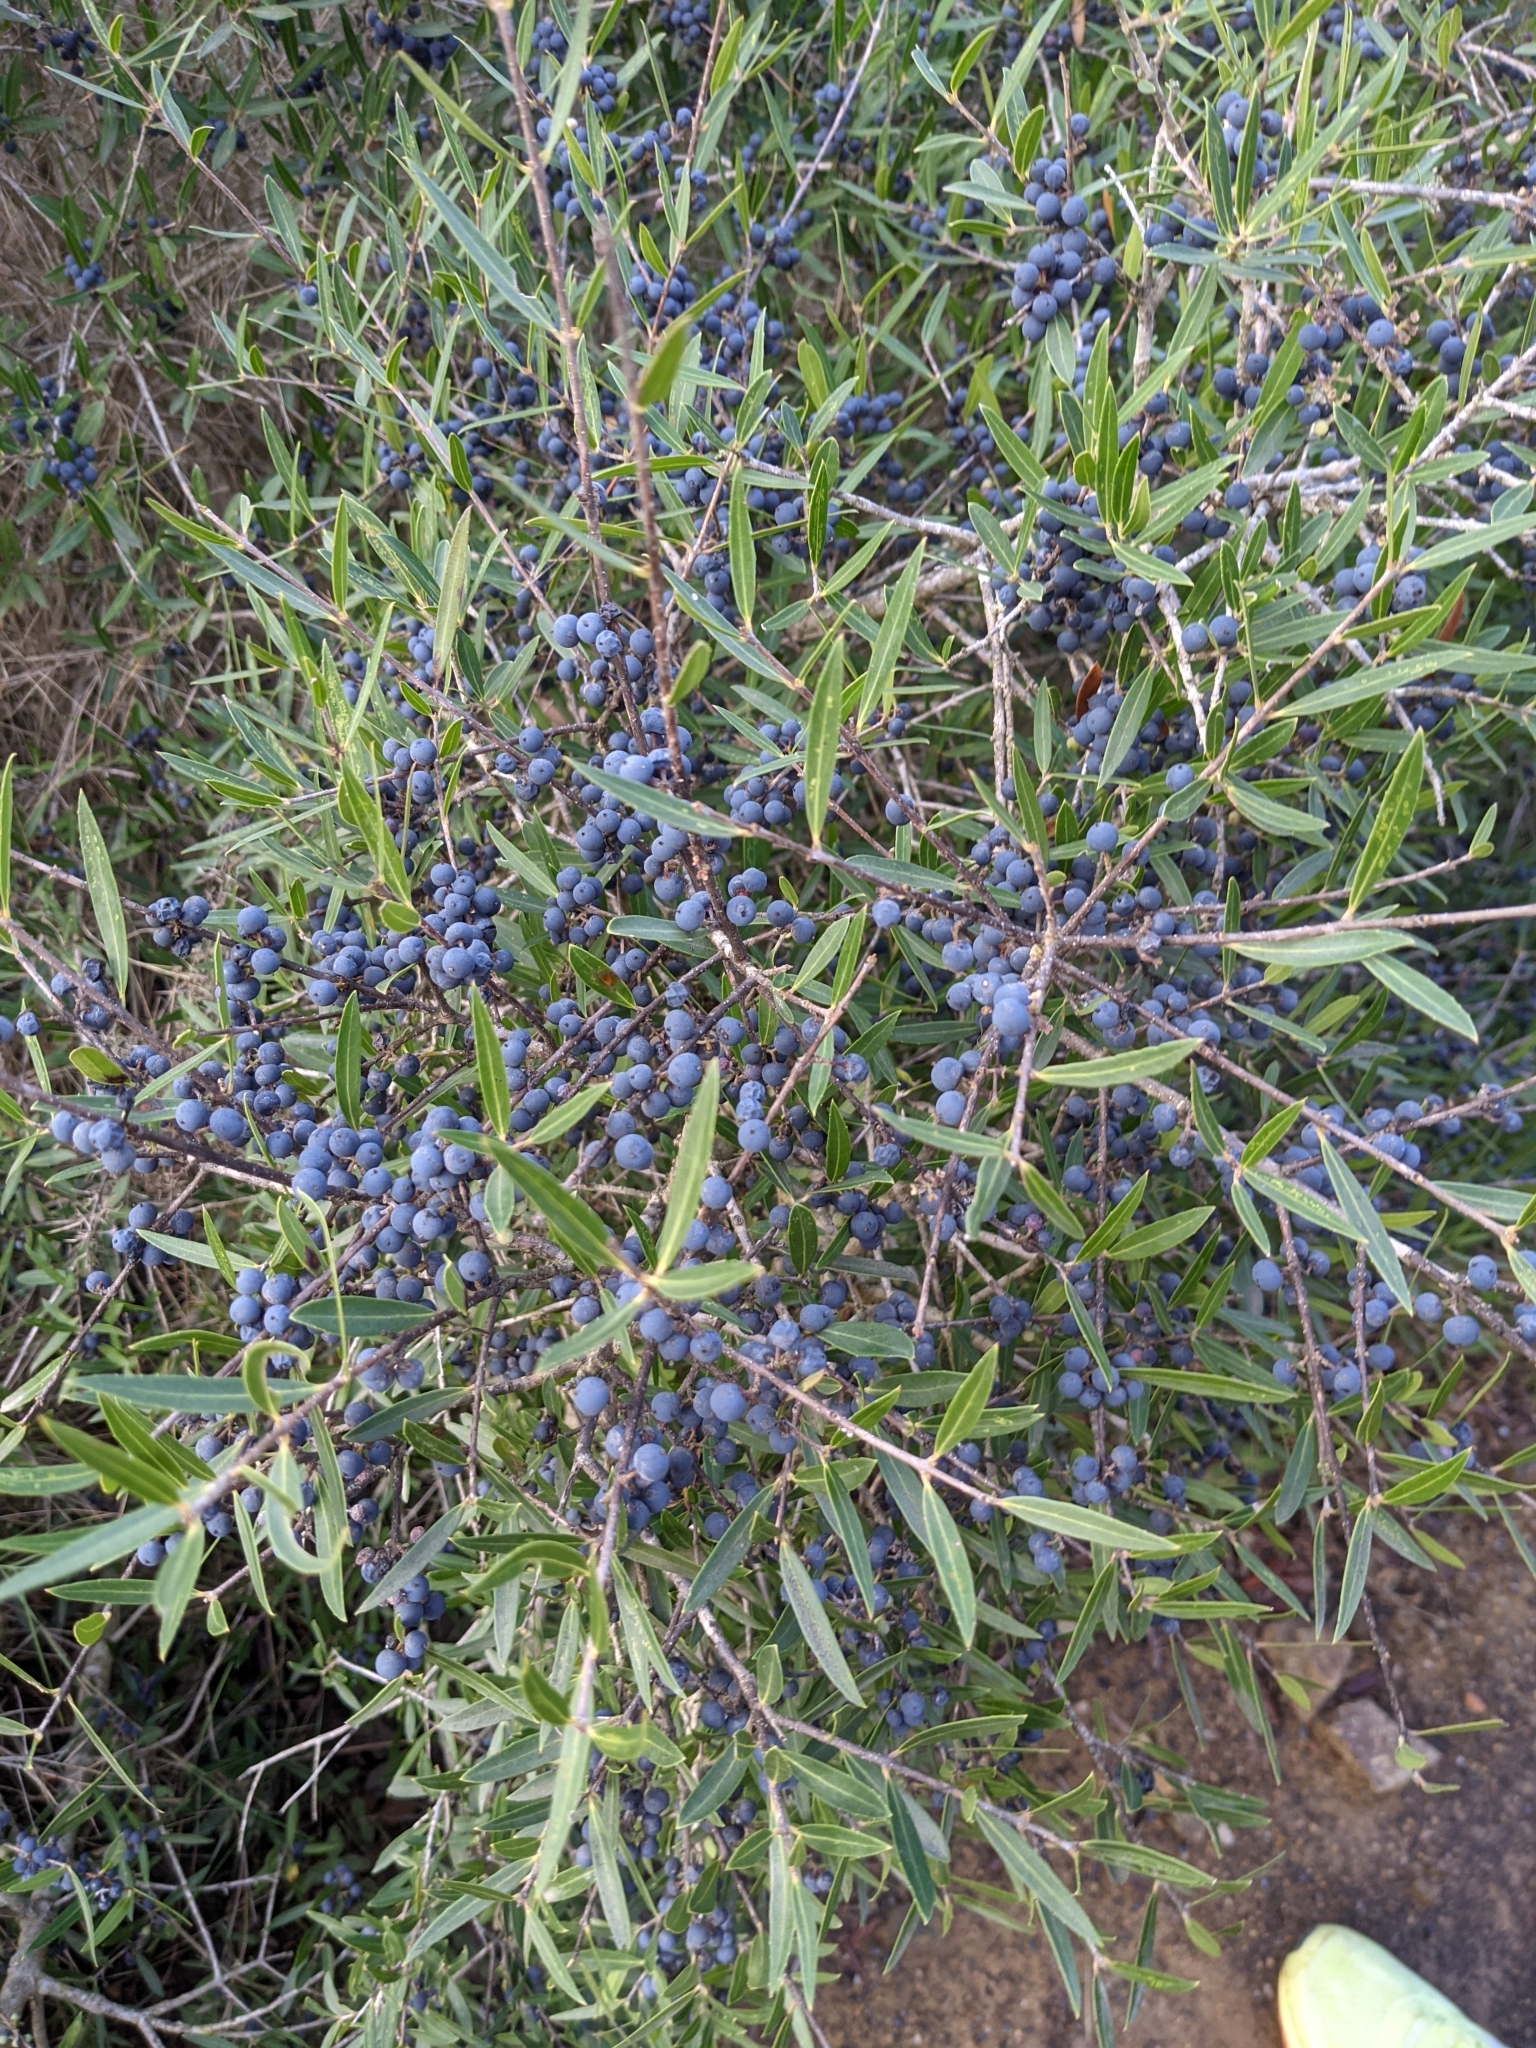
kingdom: Plantae
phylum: Tracheophyta
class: Magnoliopsida
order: Lamiales
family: Oleaceae
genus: Phillyrea
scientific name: Phillyrea angustifolia
